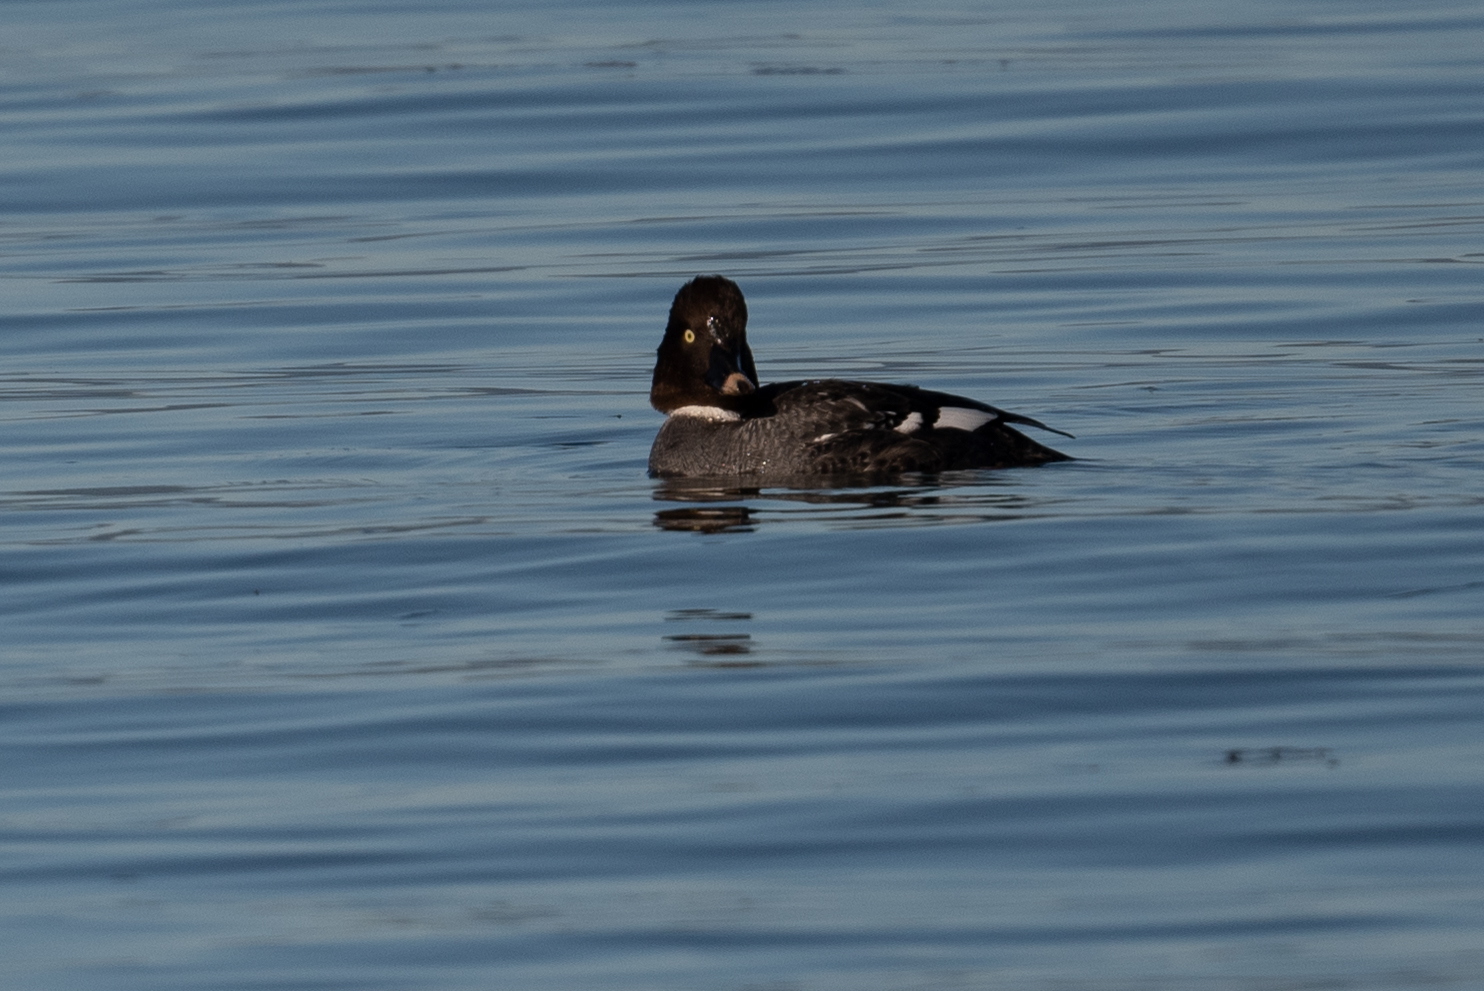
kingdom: Animalia
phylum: Chordata
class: Aves
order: Anseriformes
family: Anatidae
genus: Bucephala
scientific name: Bucephala clangula
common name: Common goldeneye
